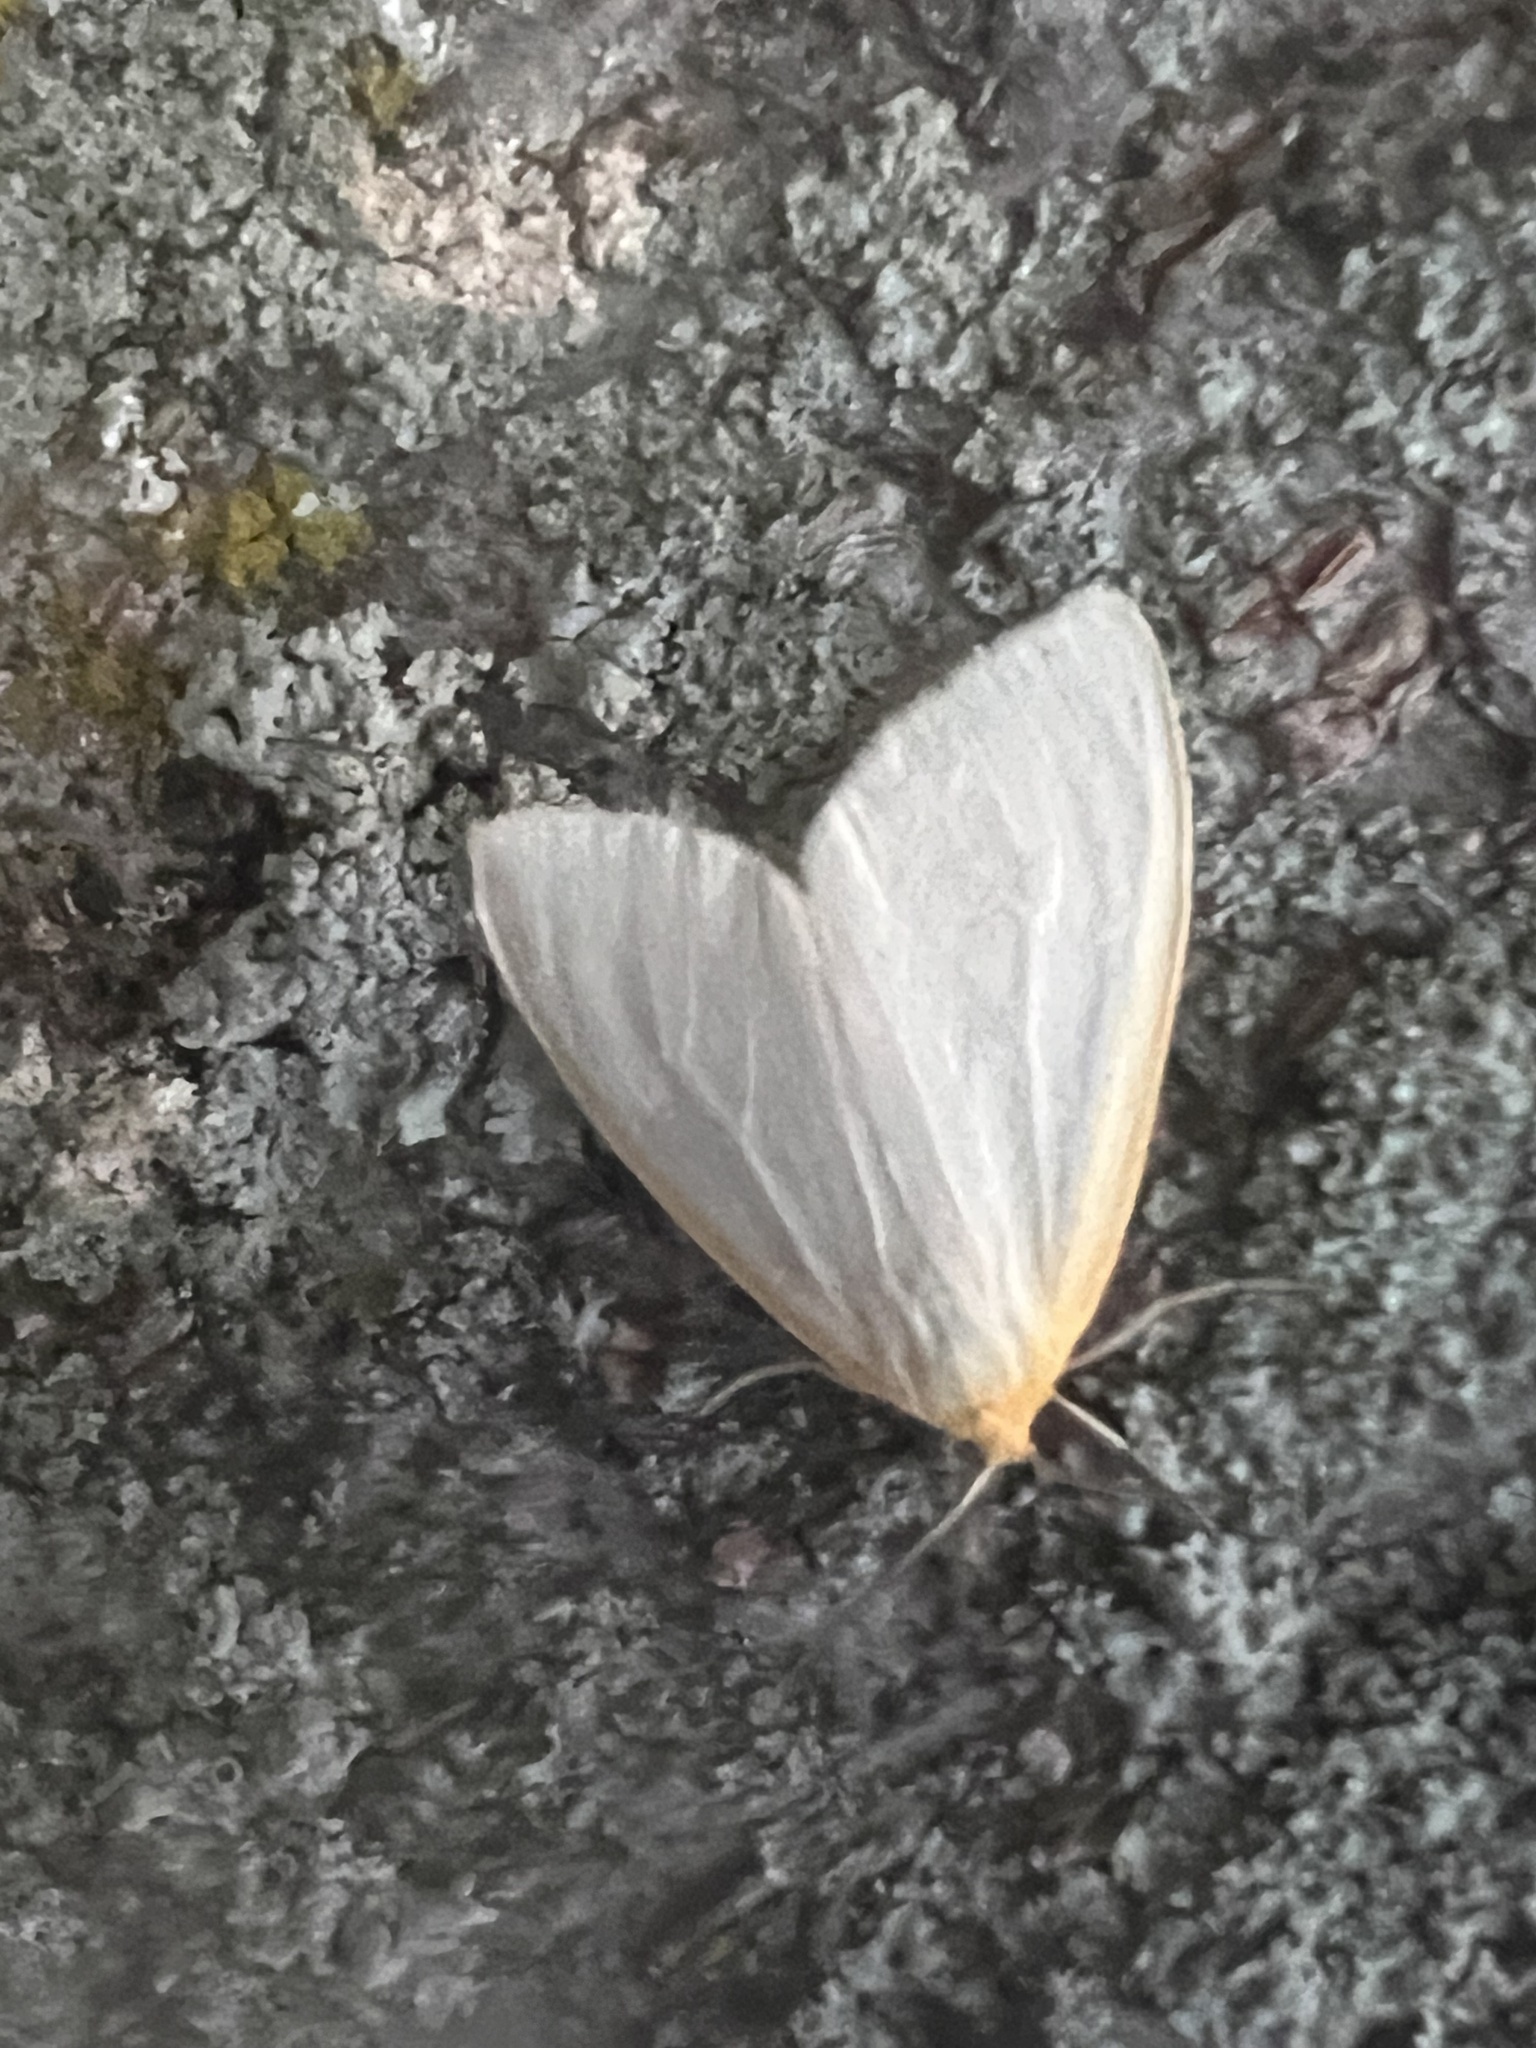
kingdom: Animalia
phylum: Arthropoda
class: Insecta
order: Lepidoptera
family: Erebidae
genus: Cycnia
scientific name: Cycnia tenera
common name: Delicate cycnia moth
